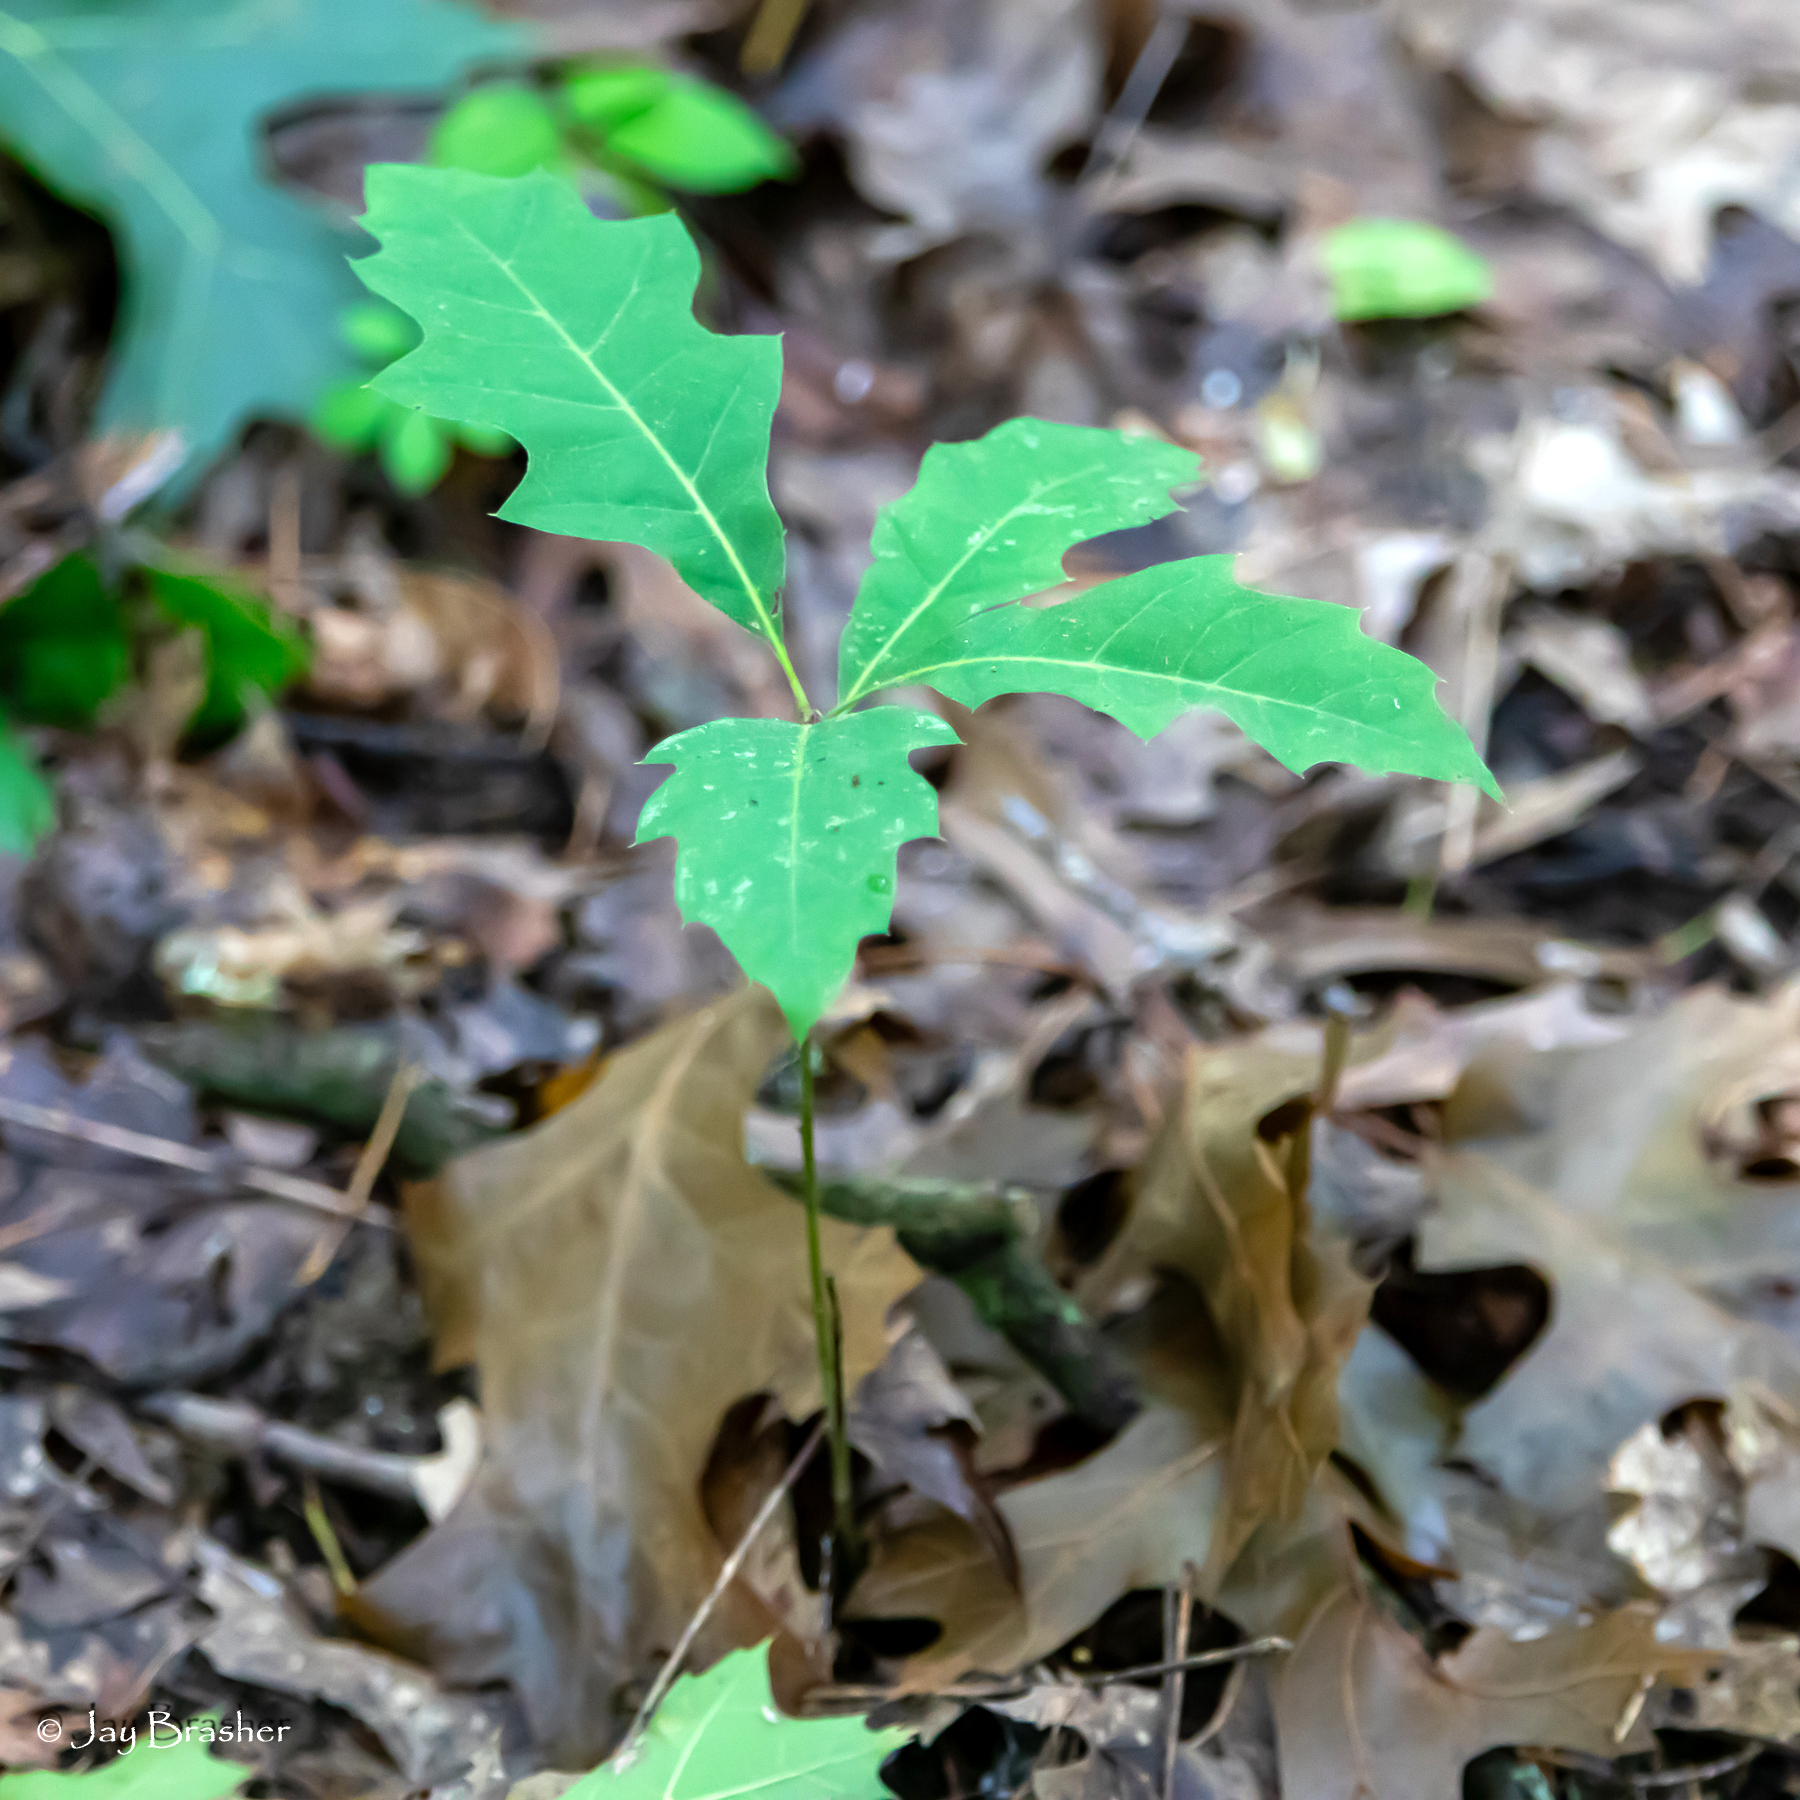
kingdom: Plantae
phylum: Tracheophyta
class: Magnoliopsida
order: Fagales
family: Fagaceae
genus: Quercus
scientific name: Quercus rubra
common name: Red oak
